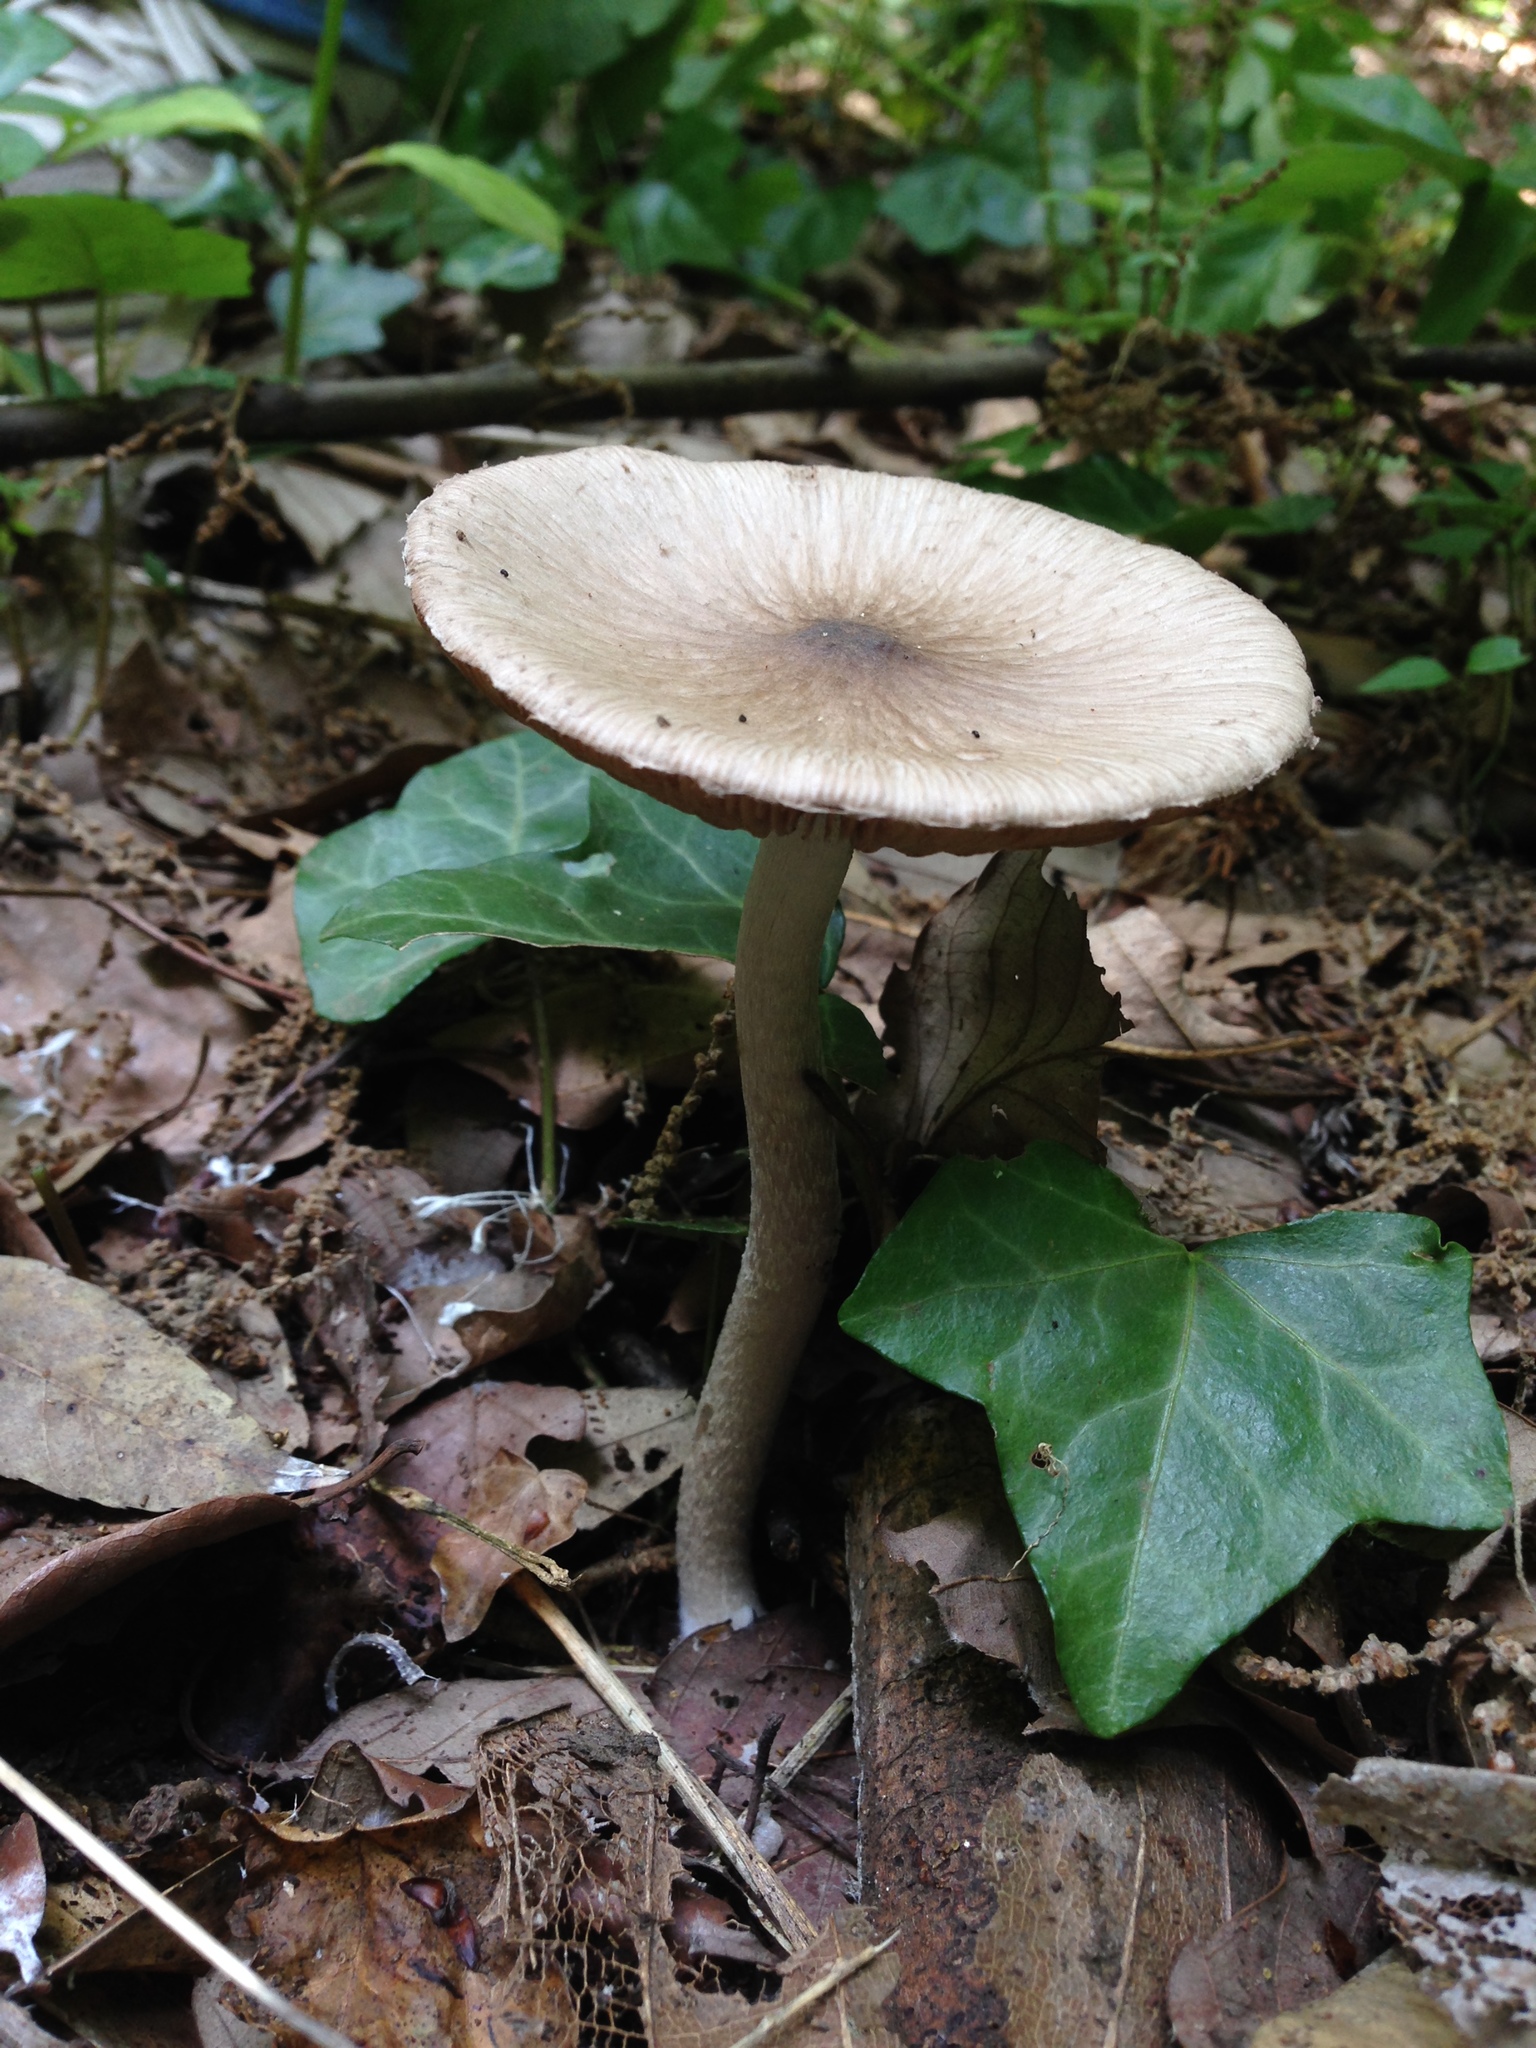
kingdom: Fungi
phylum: Basidiomycota
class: Agaricomycetes
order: Agaricales
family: Psathyrellaceae
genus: Coprinopsis
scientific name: Coprinopsis cineraria
